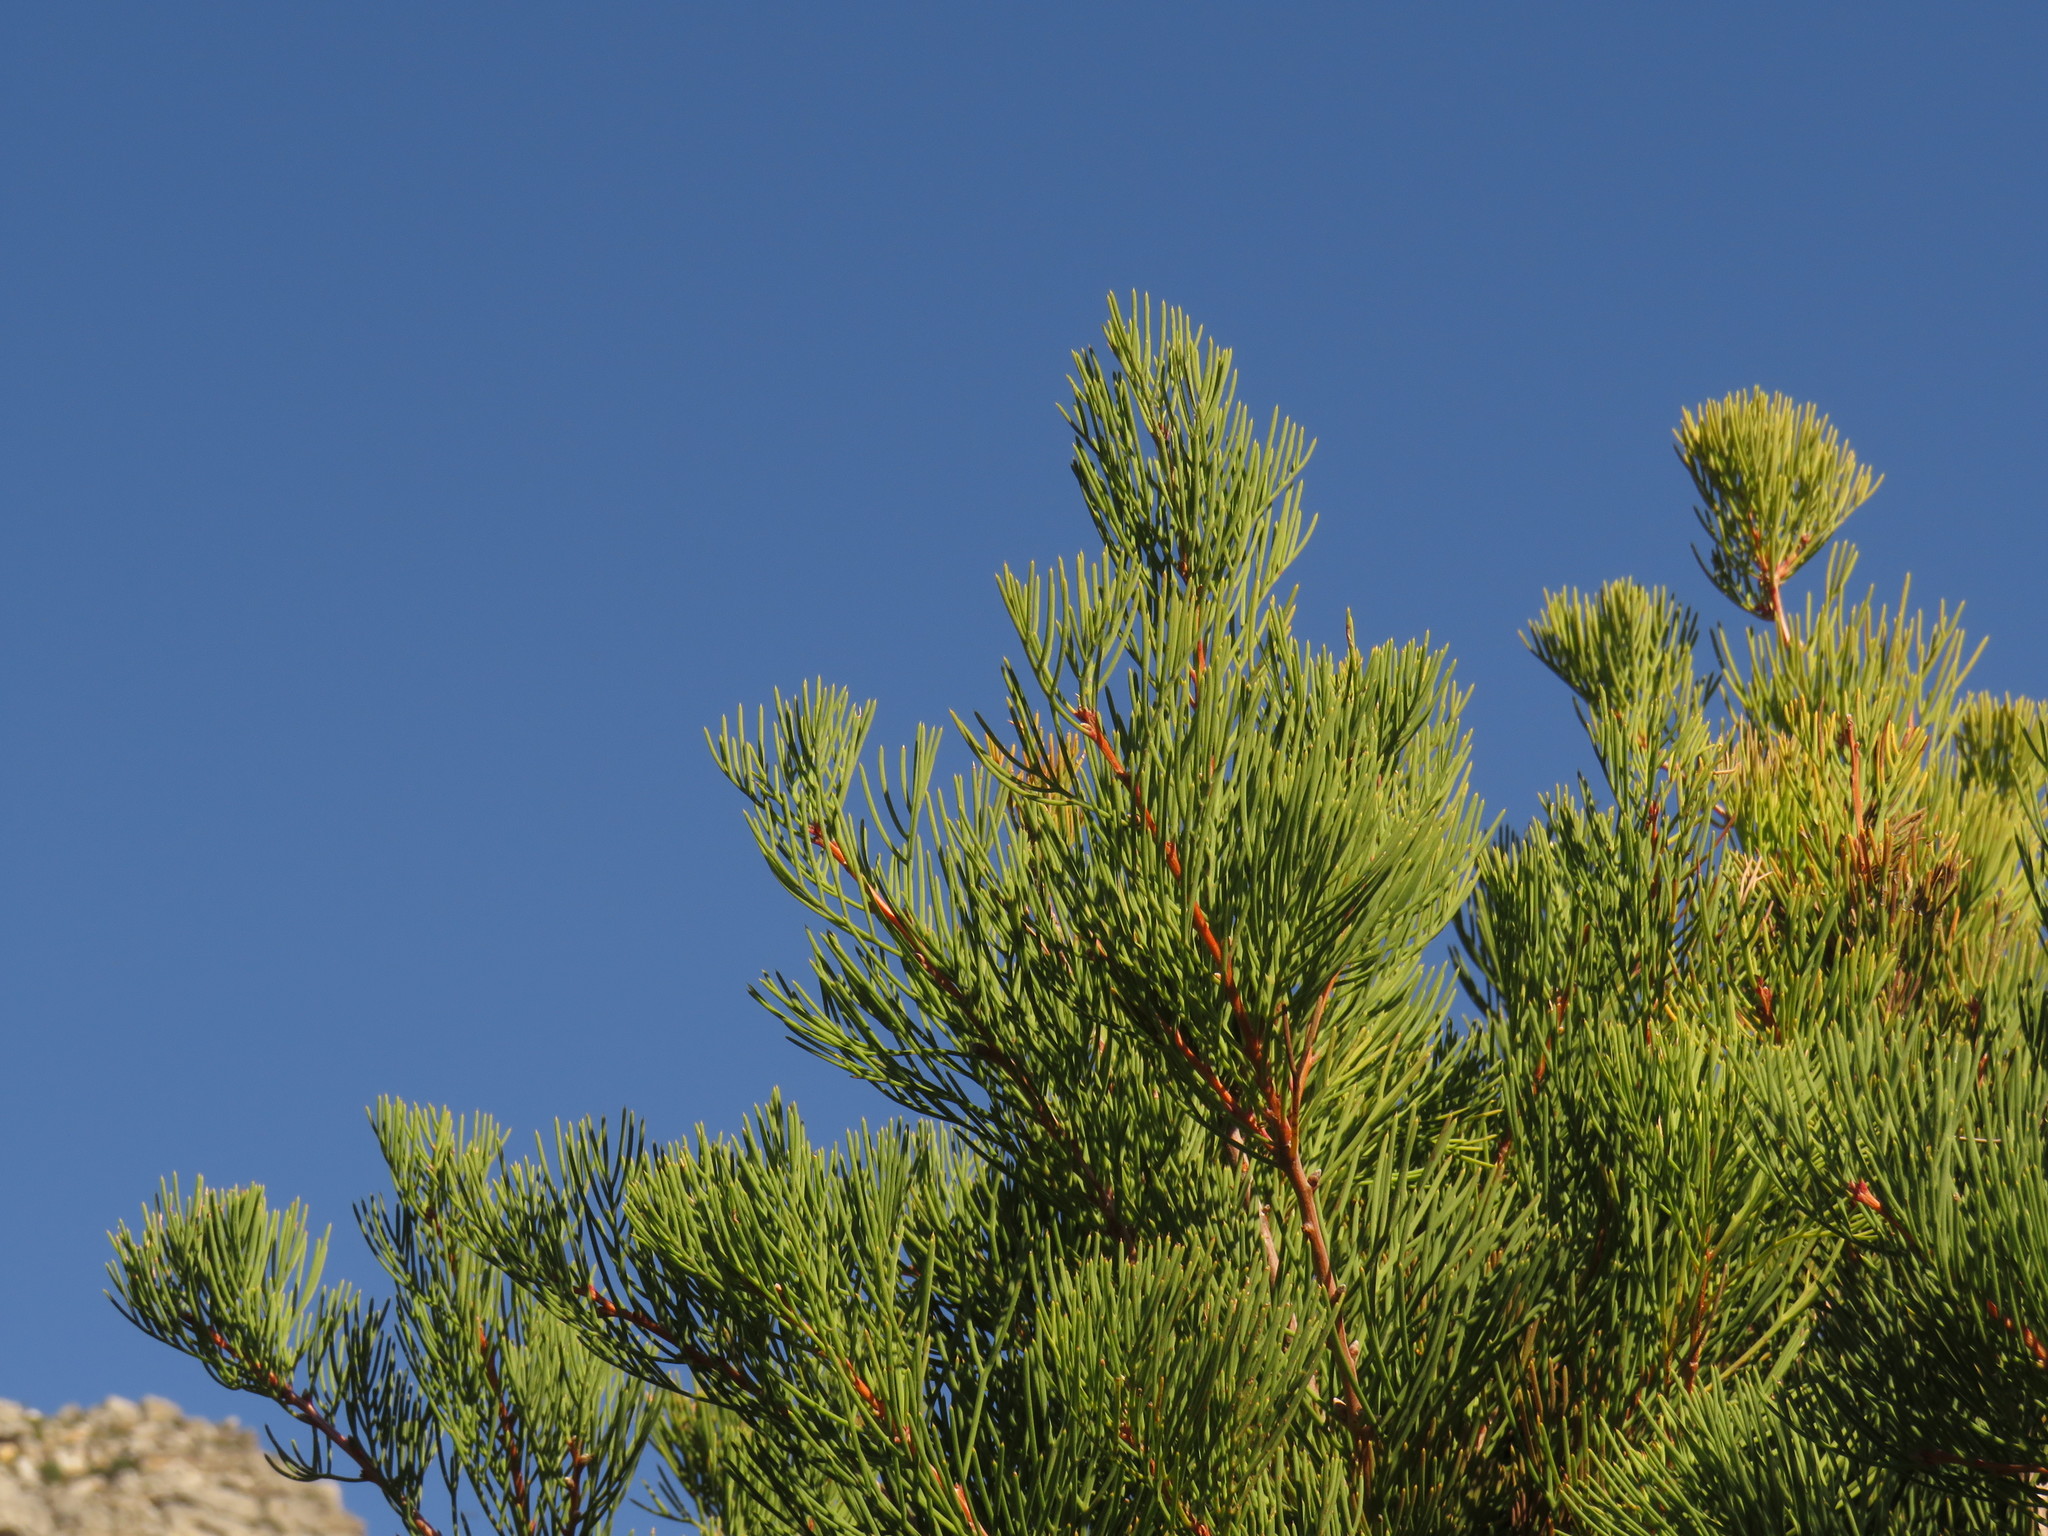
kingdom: Plantae
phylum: Tracheophyta
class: Magnoliopsida
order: Proteales
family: Proteaceae
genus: Hakea
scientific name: Hakea drupacea
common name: Sweet hakea
